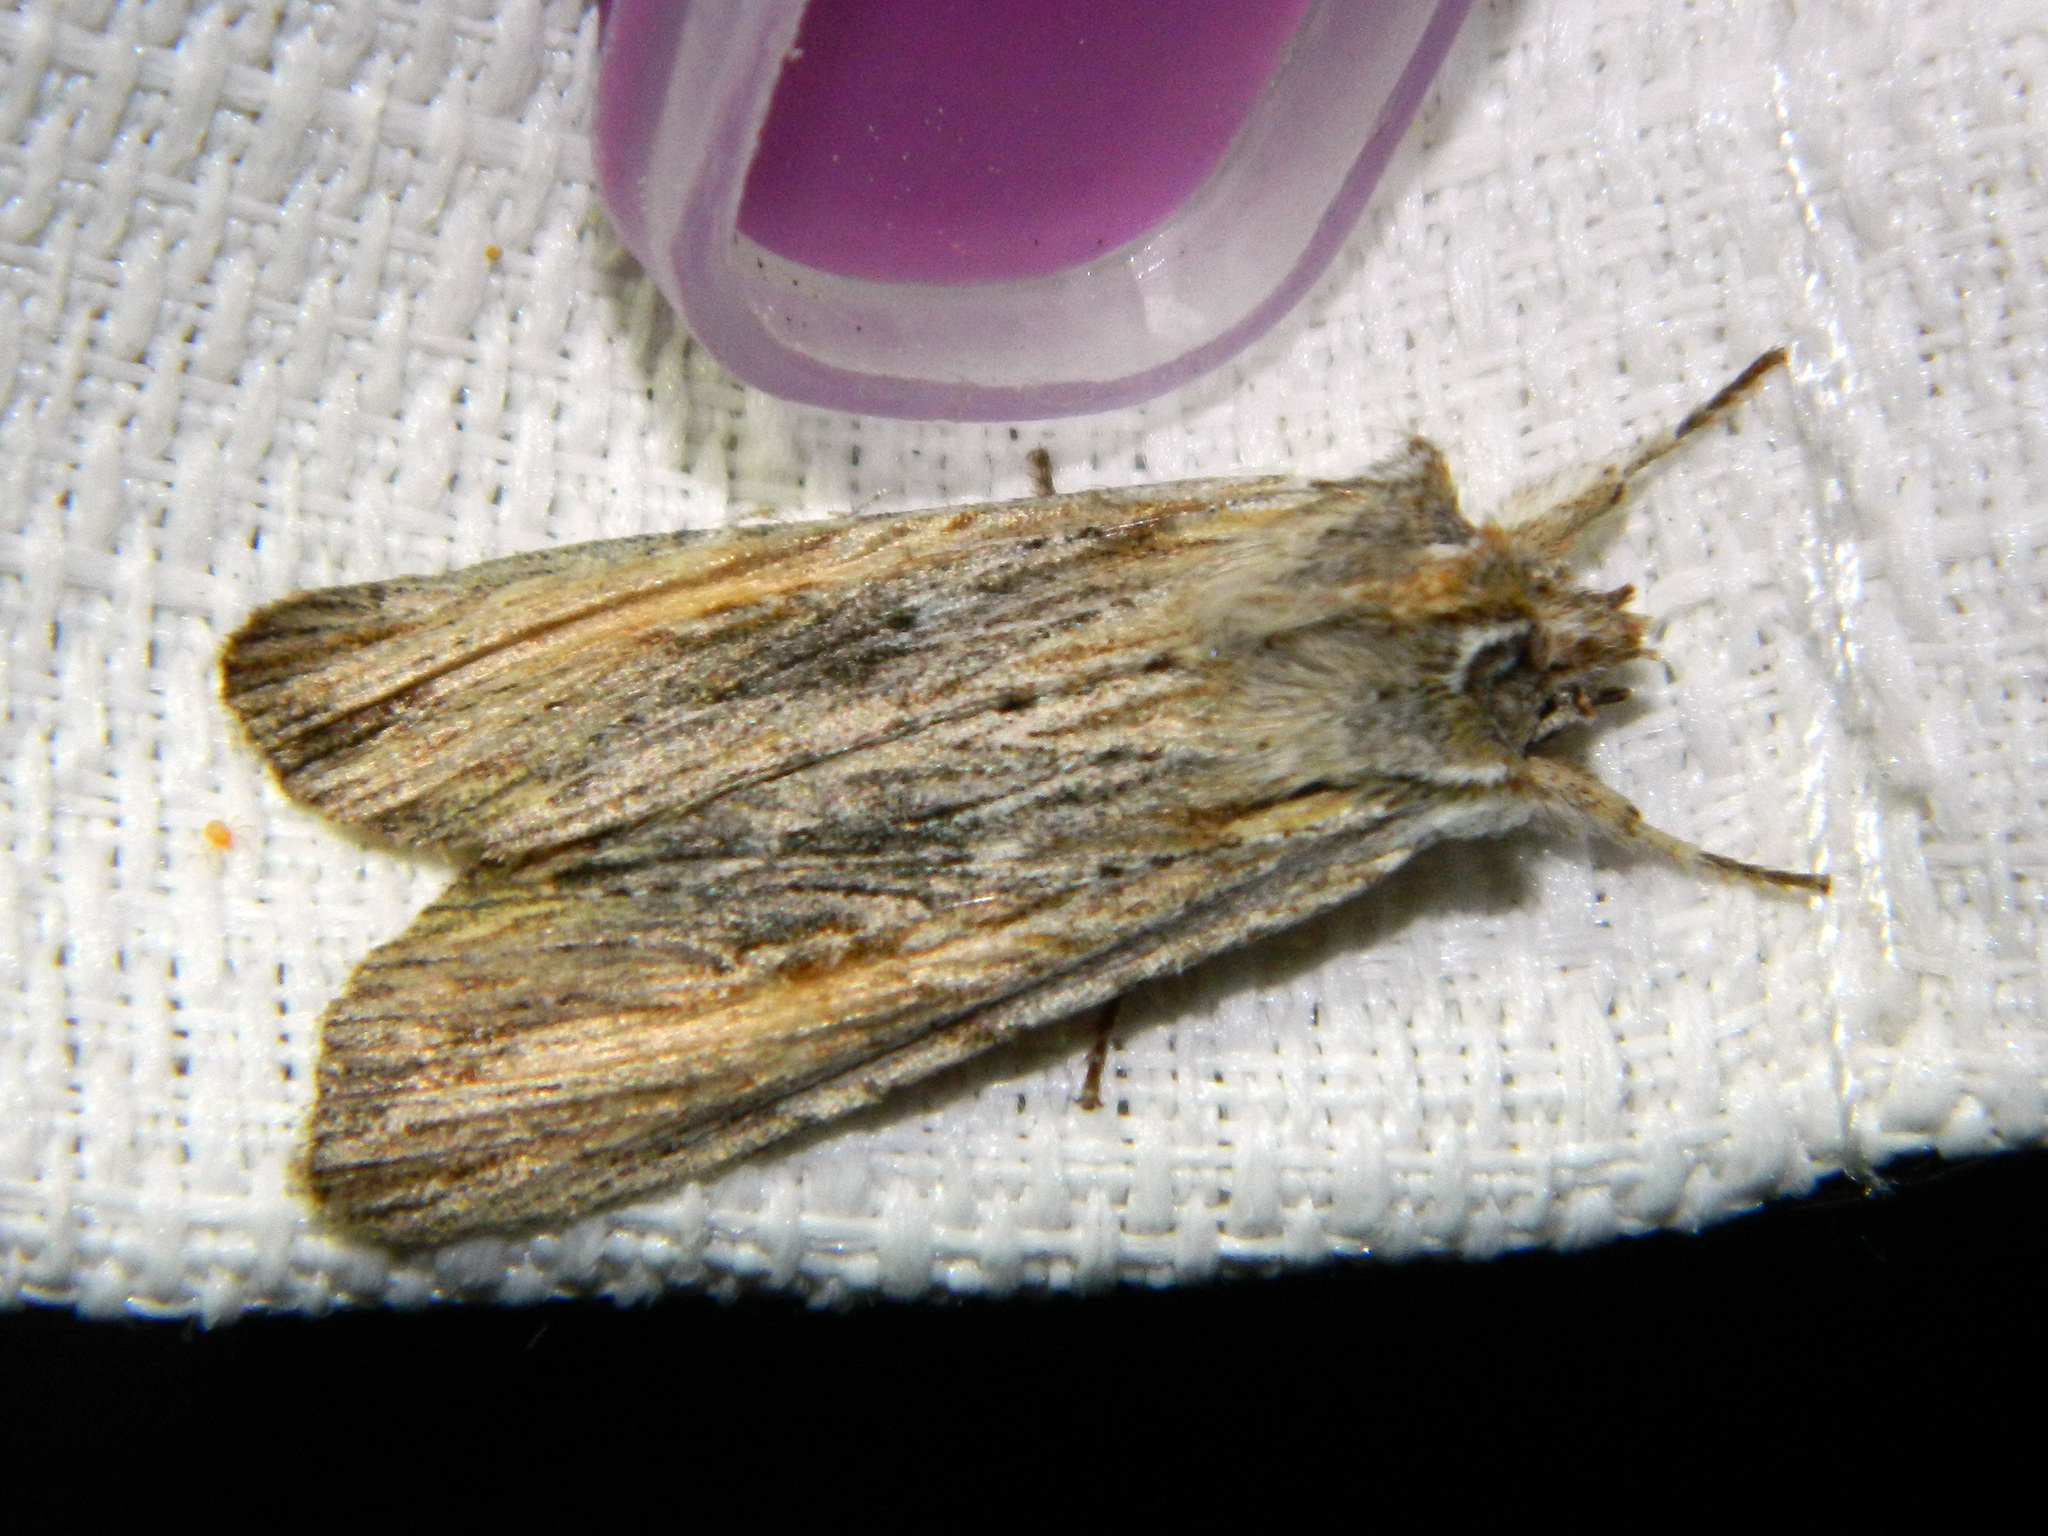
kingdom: Animalia
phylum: Arthropoda
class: Insecta
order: Lepidoptera
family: Noctuidae
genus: Lithophane
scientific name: Lithophane amanda
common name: Amanda's pinion moth
